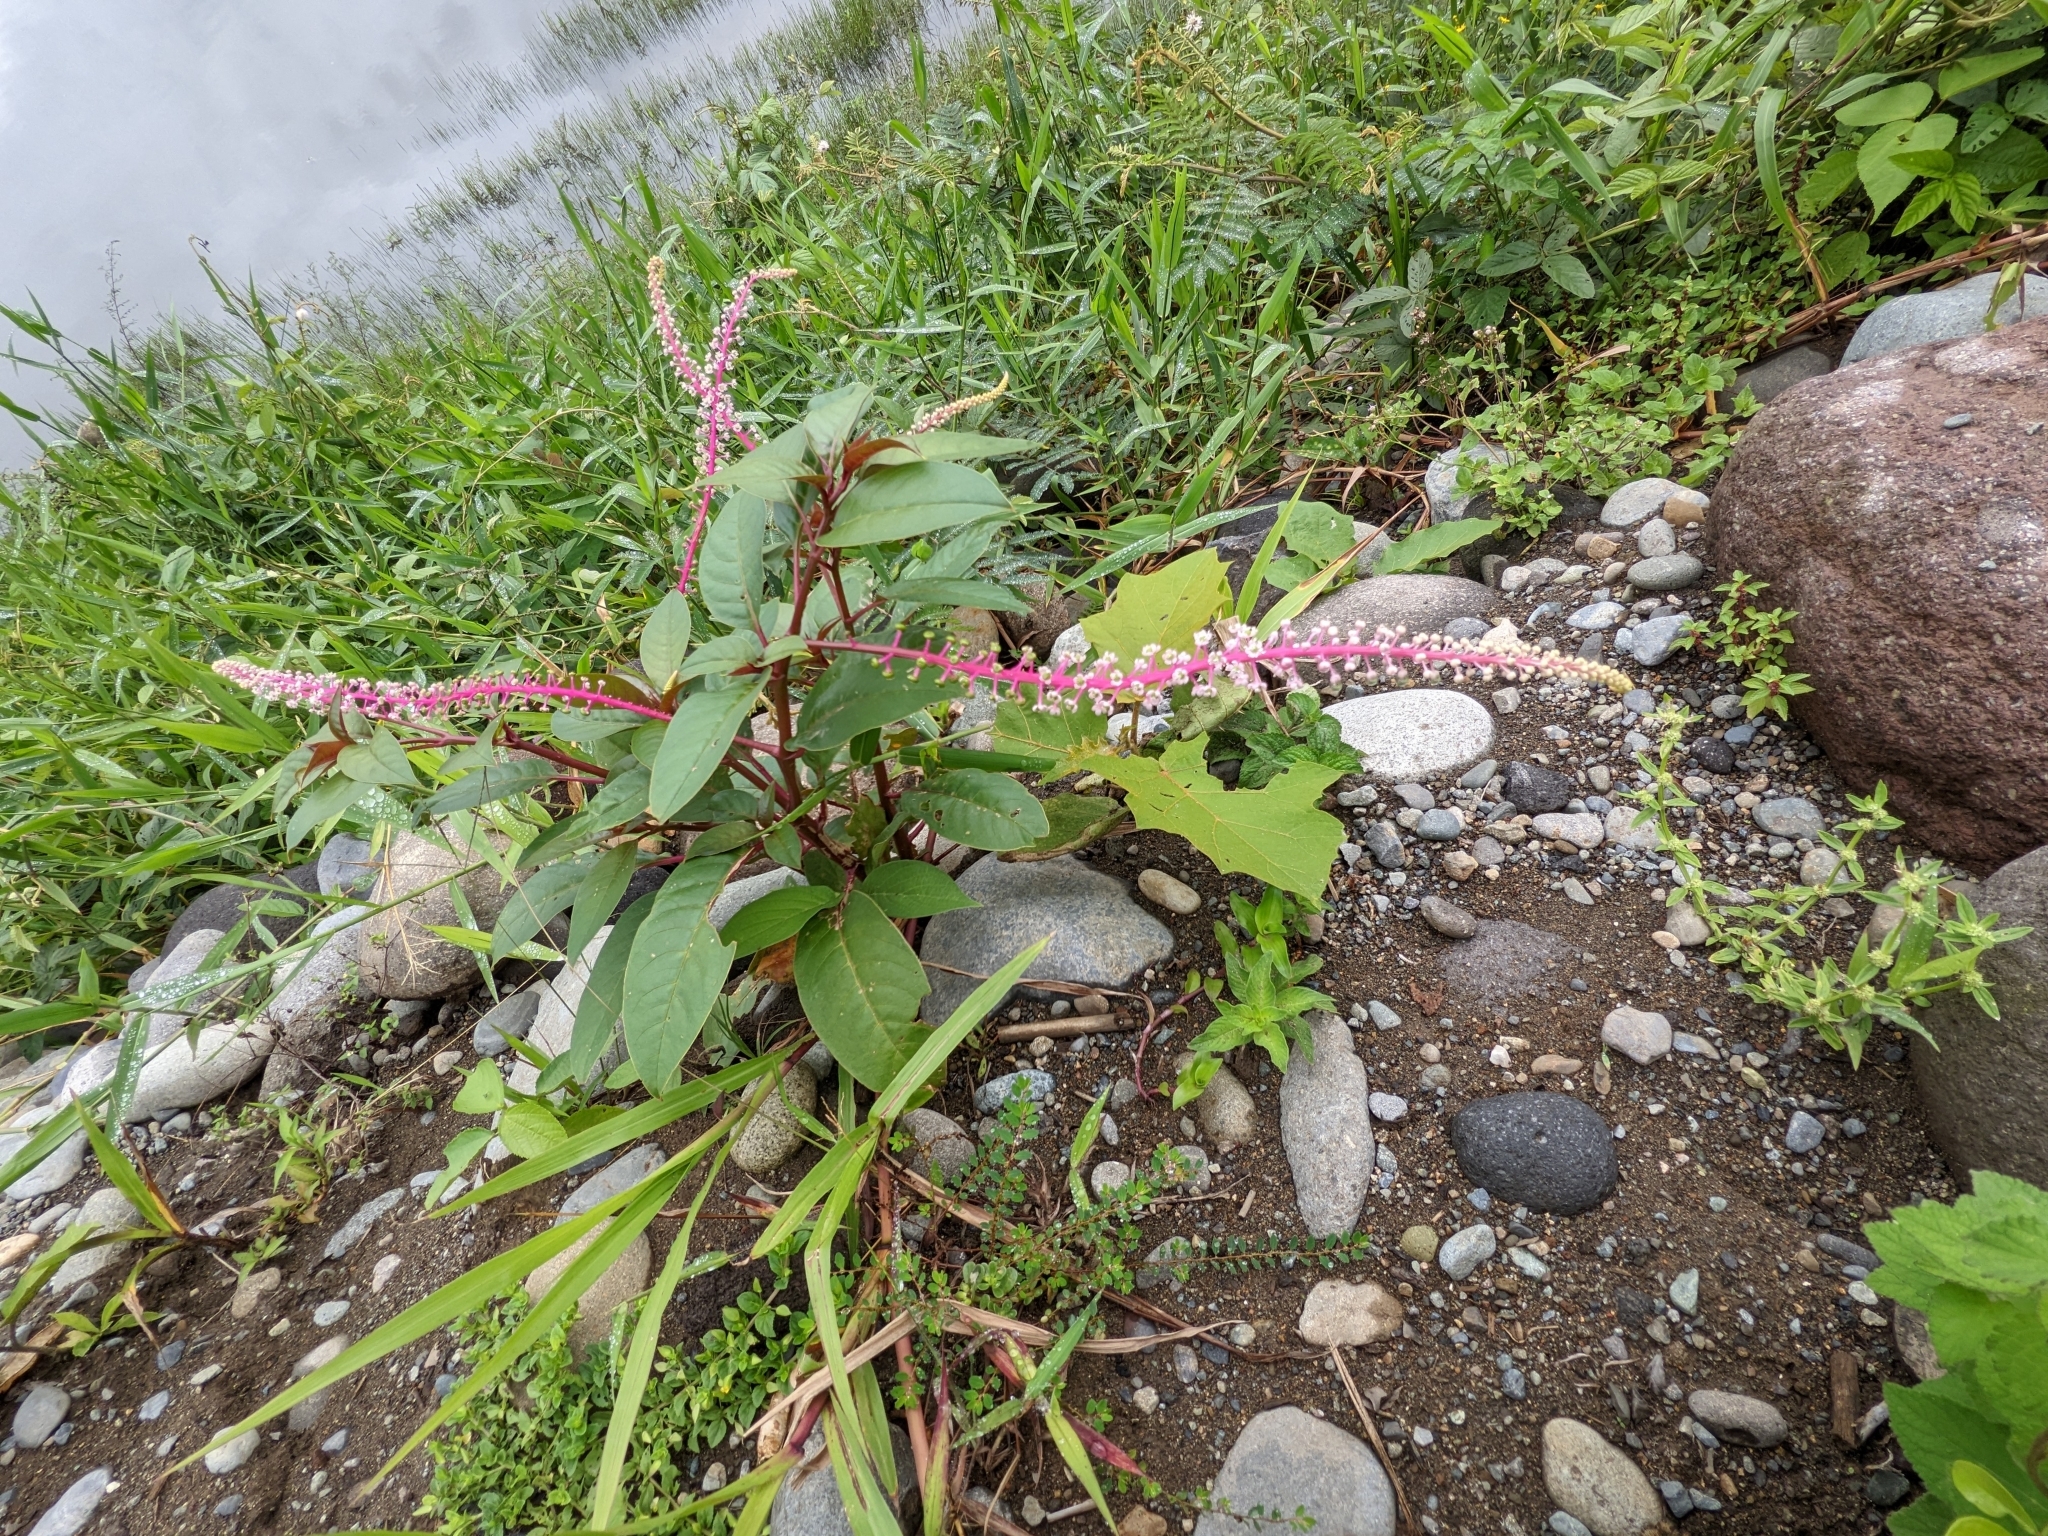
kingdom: Plantae
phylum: Tracheophyta
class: Magnoliopsida
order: Caryophyllales
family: Phytolaccaceae
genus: Phytolacca
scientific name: Phytolacca rivinoides
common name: Venezuelan pokeweed
